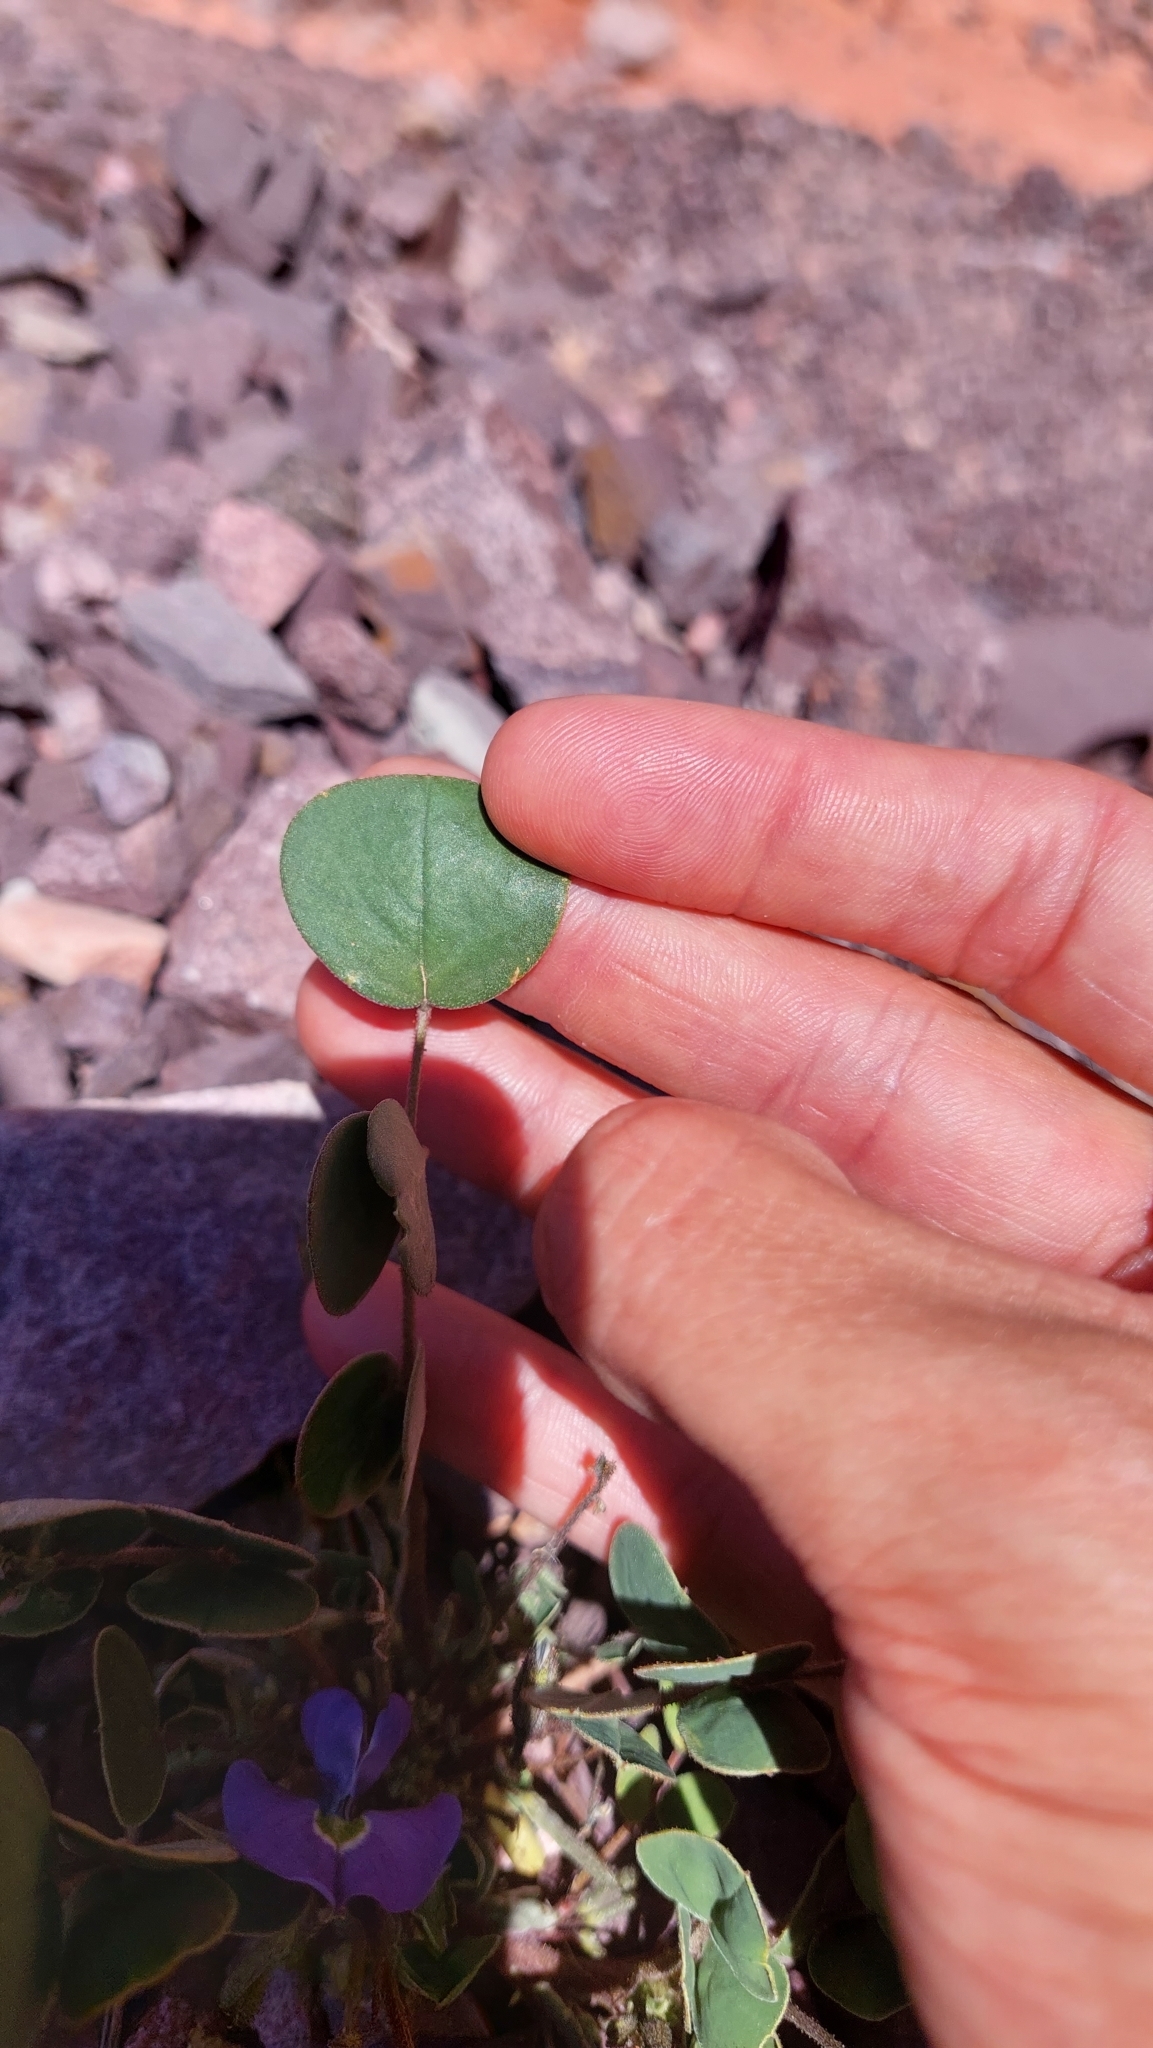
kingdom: Plantae
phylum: Tracheophyta
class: Magnoliopsida
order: Fabales
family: Fabaceae
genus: Poissonia
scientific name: Poissonia heterantha
